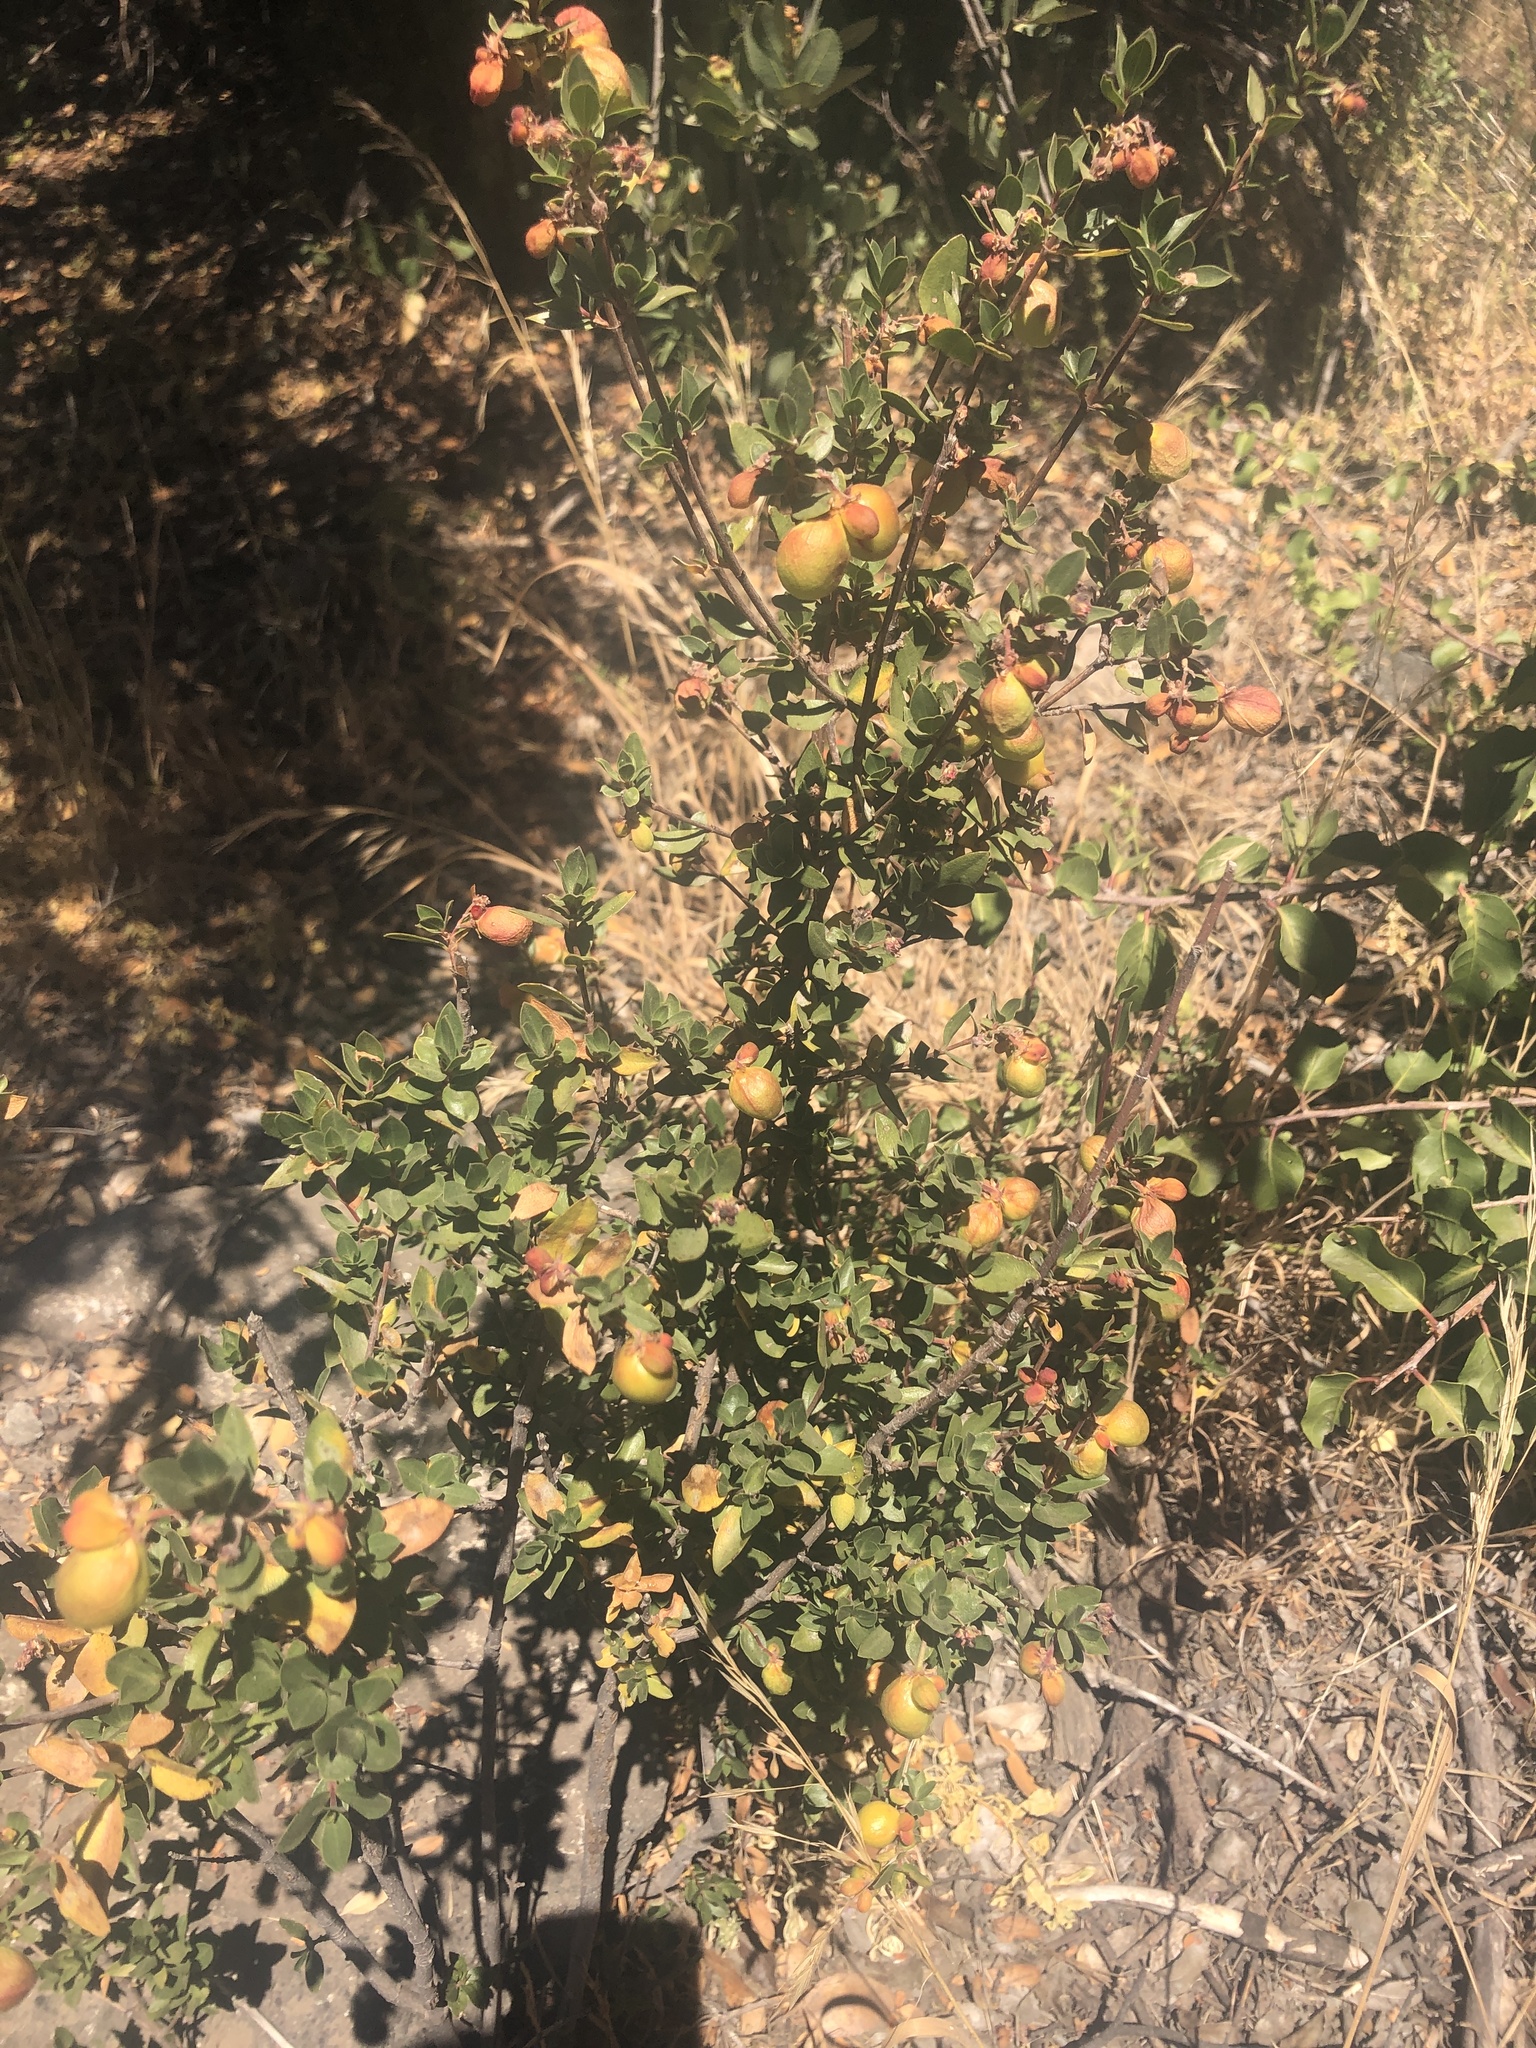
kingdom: Plantae
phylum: Tracheophyta
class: Magnoliopsida
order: Sapindales
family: Sapindaceae
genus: Guindilia
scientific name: Guindilia trinervis
